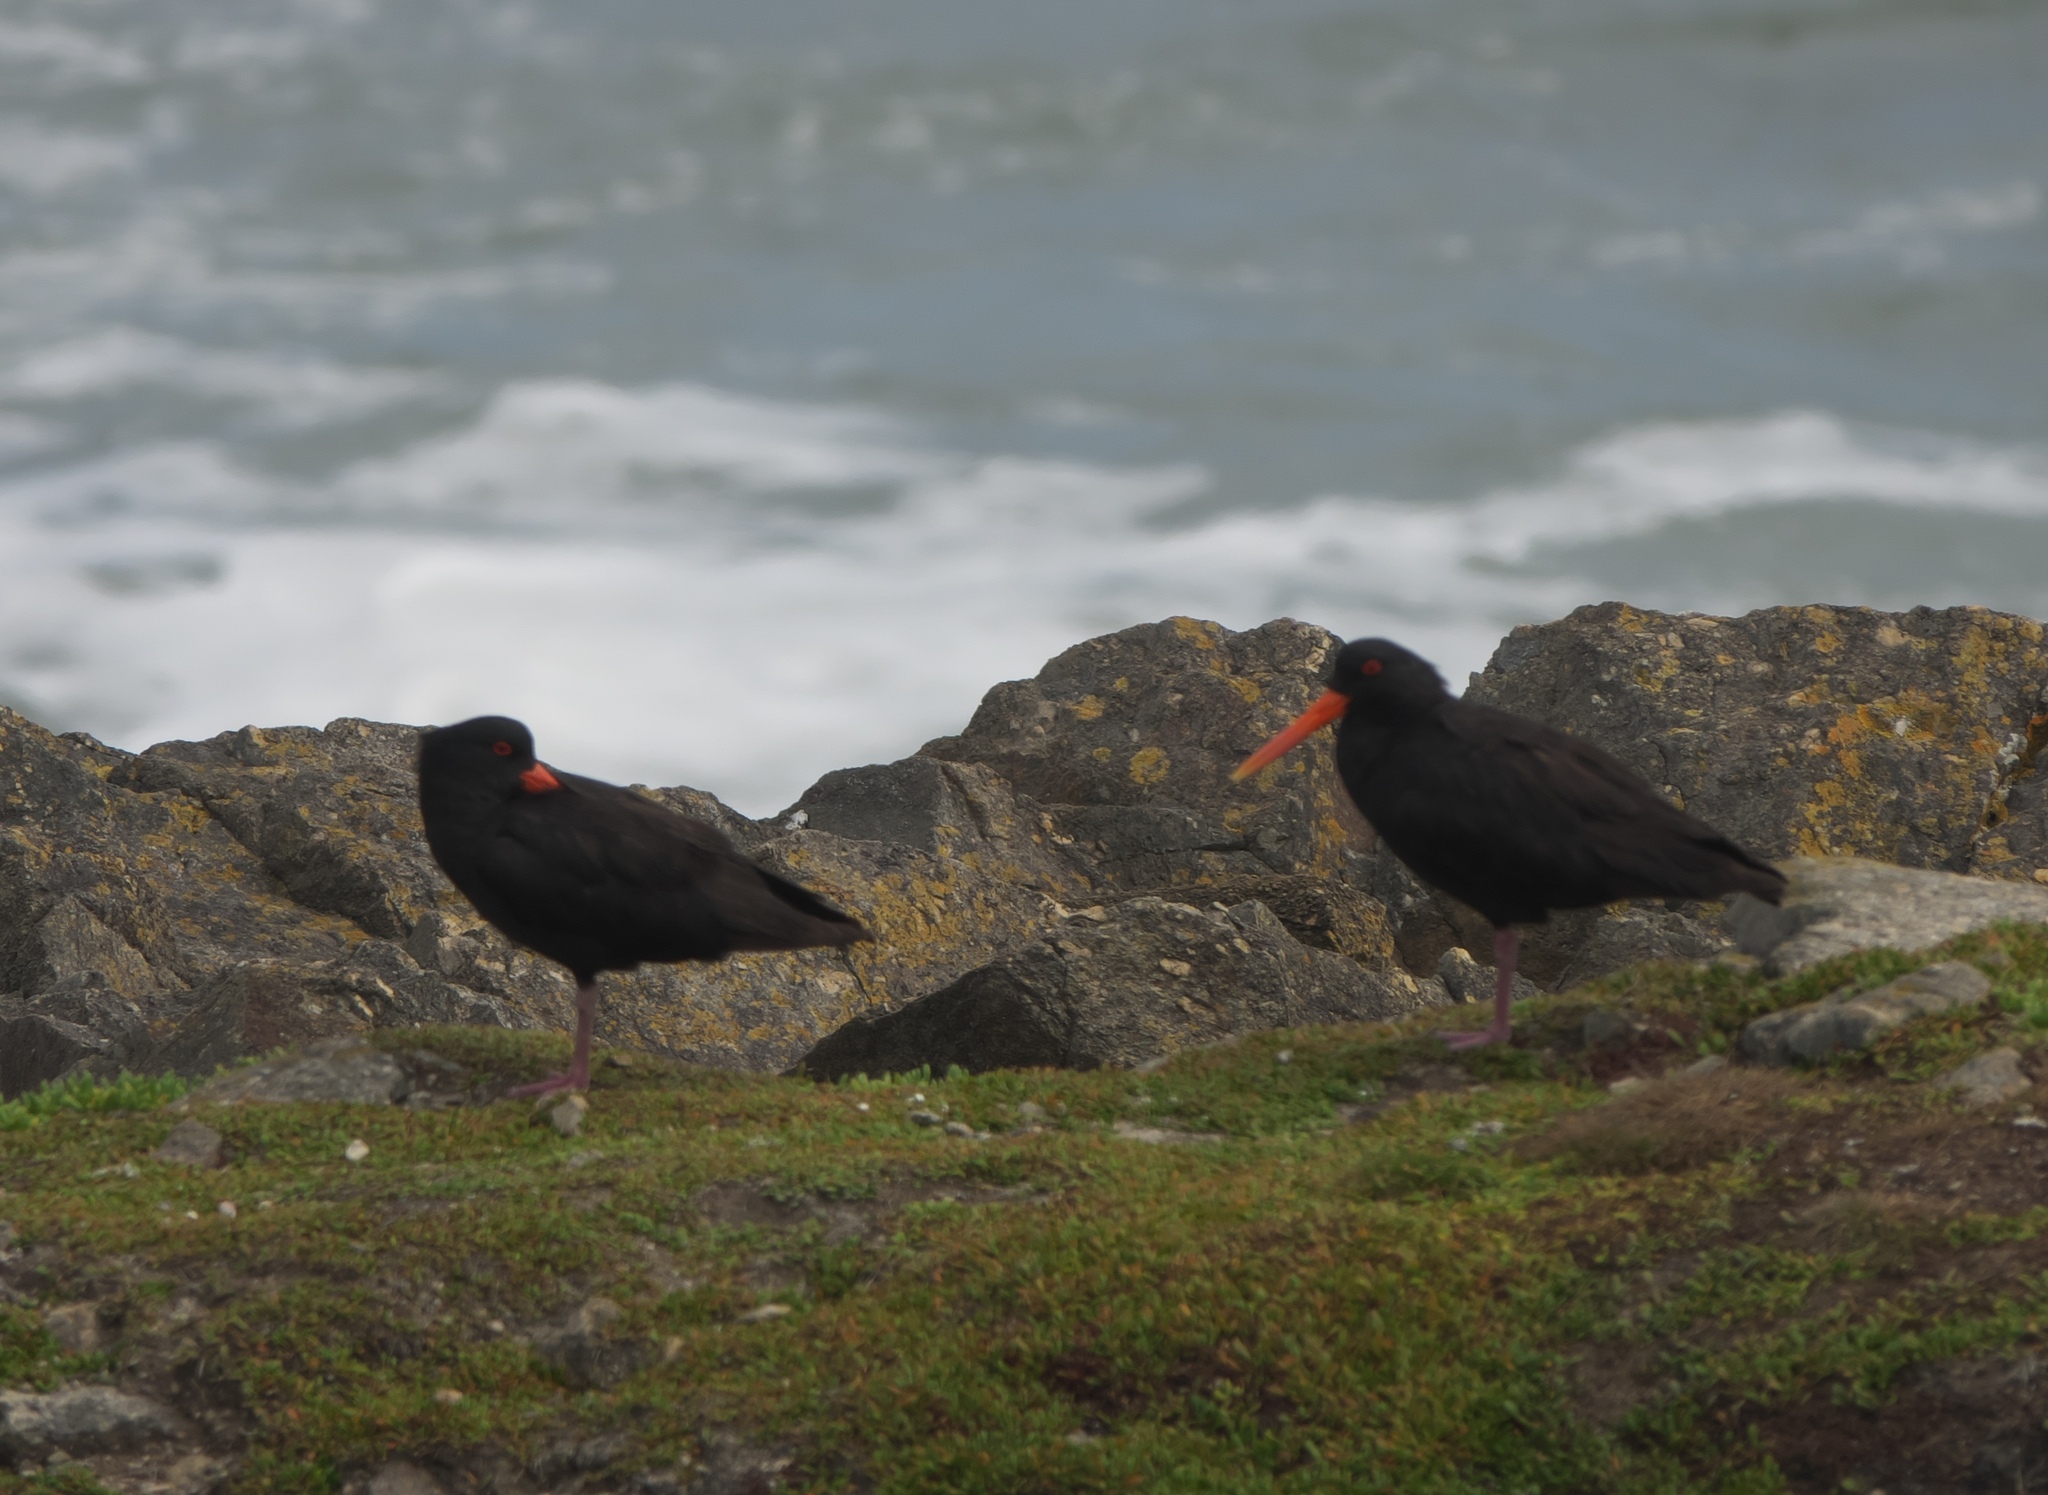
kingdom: Animalia
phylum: Chordata
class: Aves
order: Charadriiformes
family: Haematopodidae
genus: Haematopus
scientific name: Haematopus unicolor
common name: Variable oystercatcher
